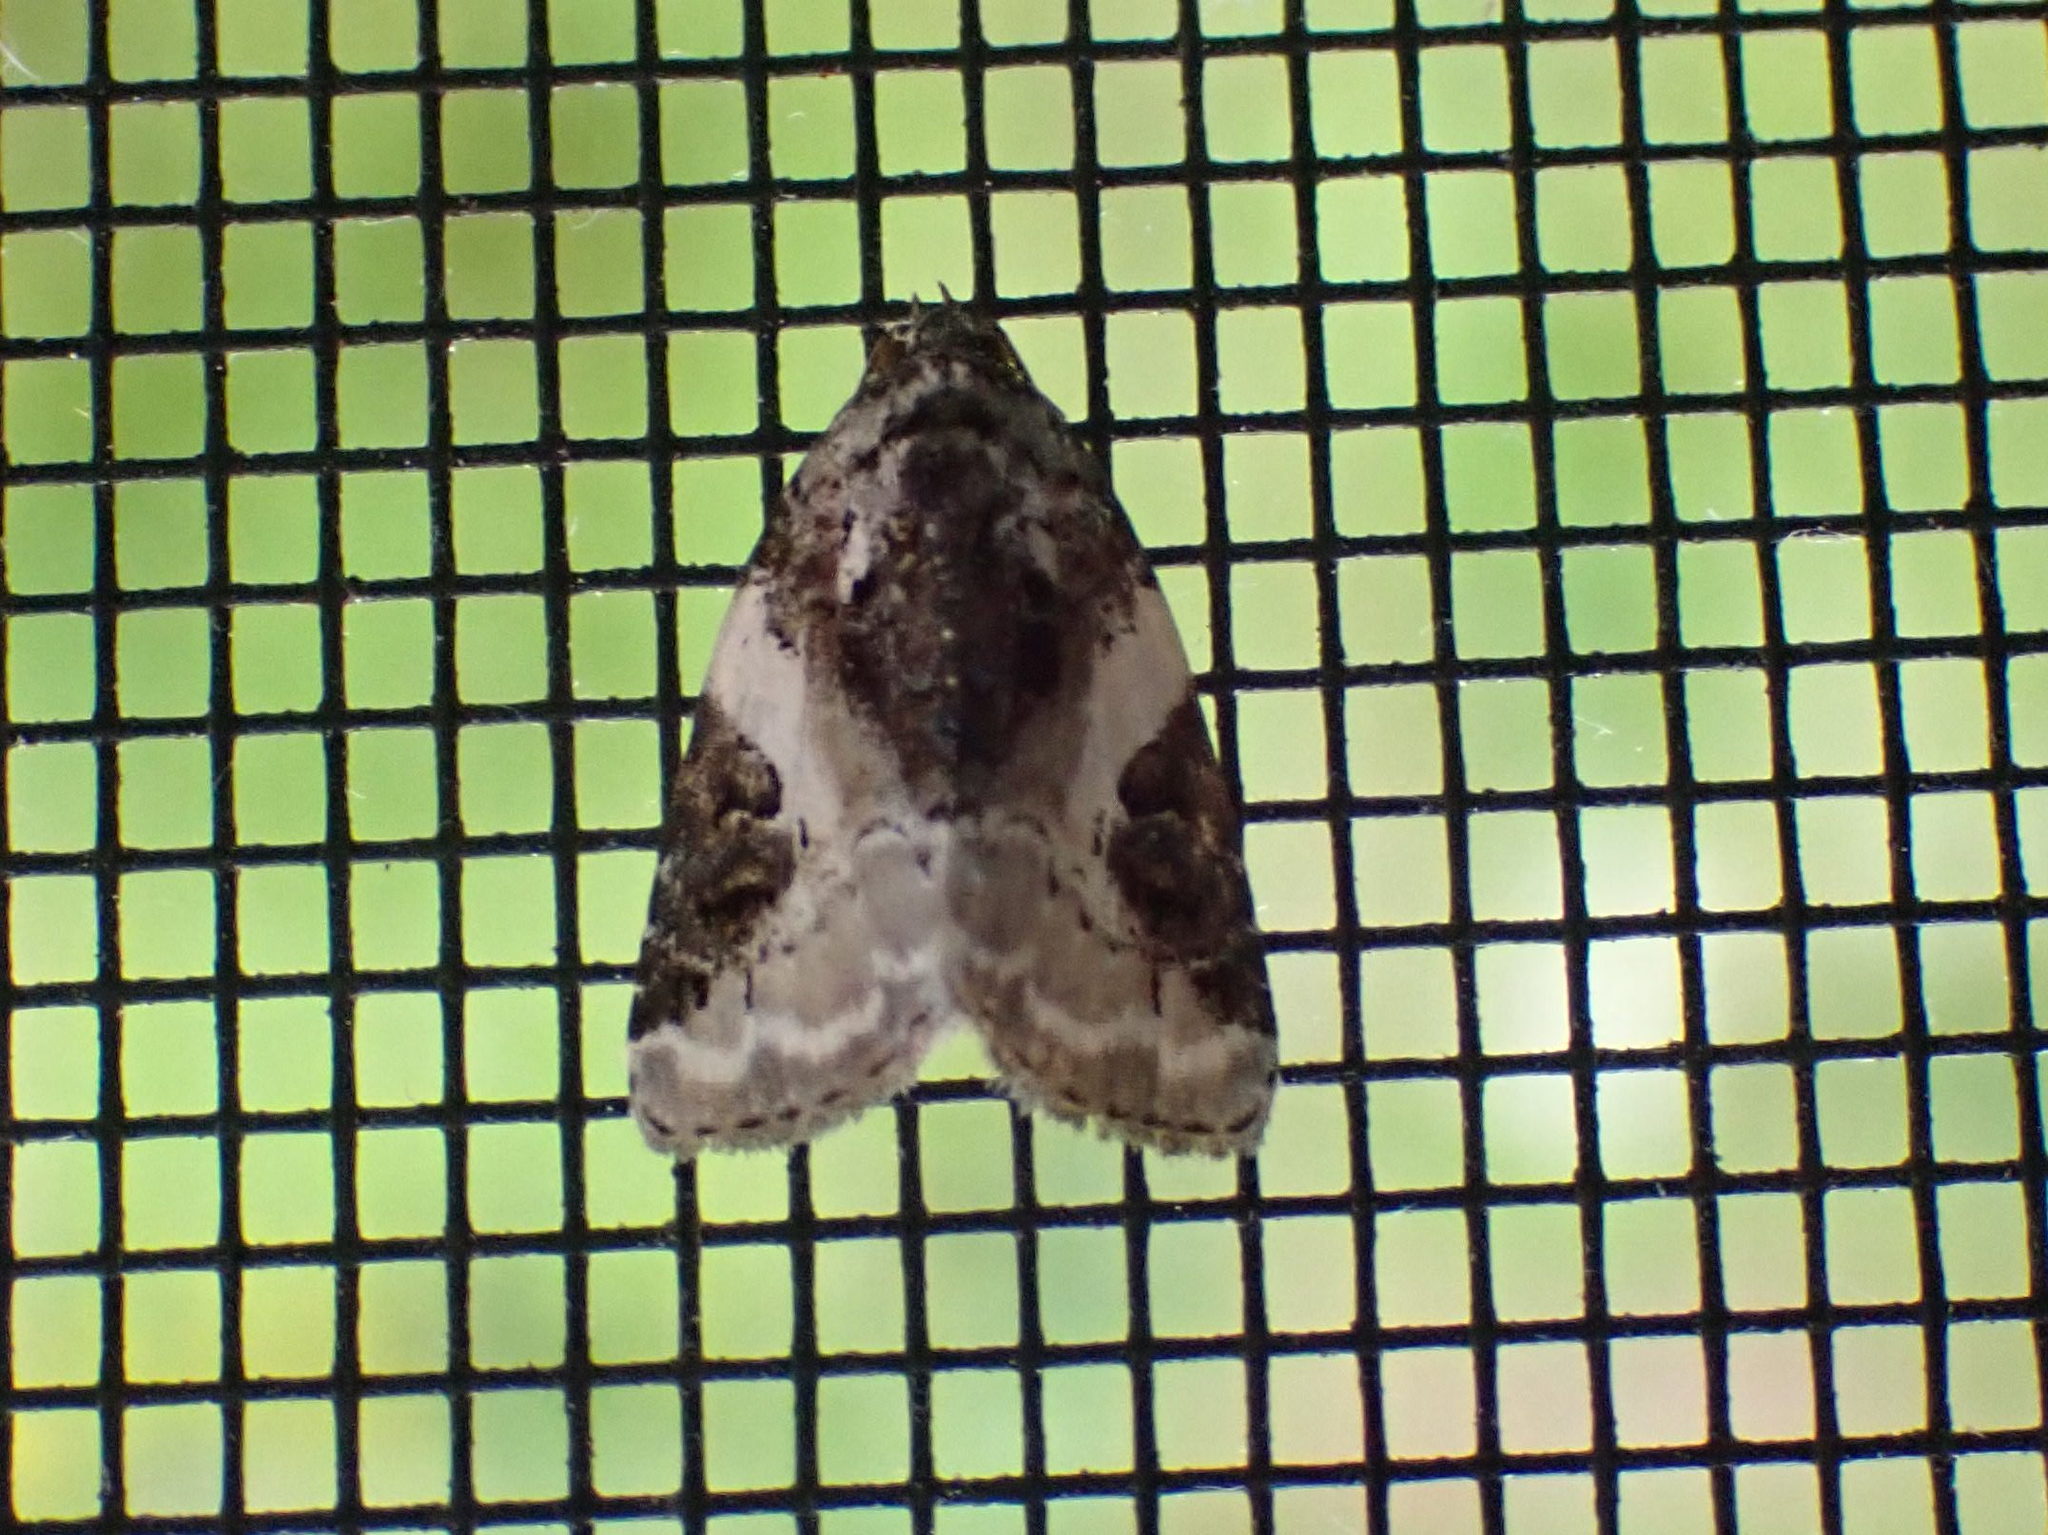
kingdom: Animalia
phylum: Arthropoda
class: Insecta
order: Lepidoptera
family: Noctuidae
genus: Pseudeustrotia
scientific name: Pseudeustrotia carneola
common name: Pink-barred lithacodia moth
